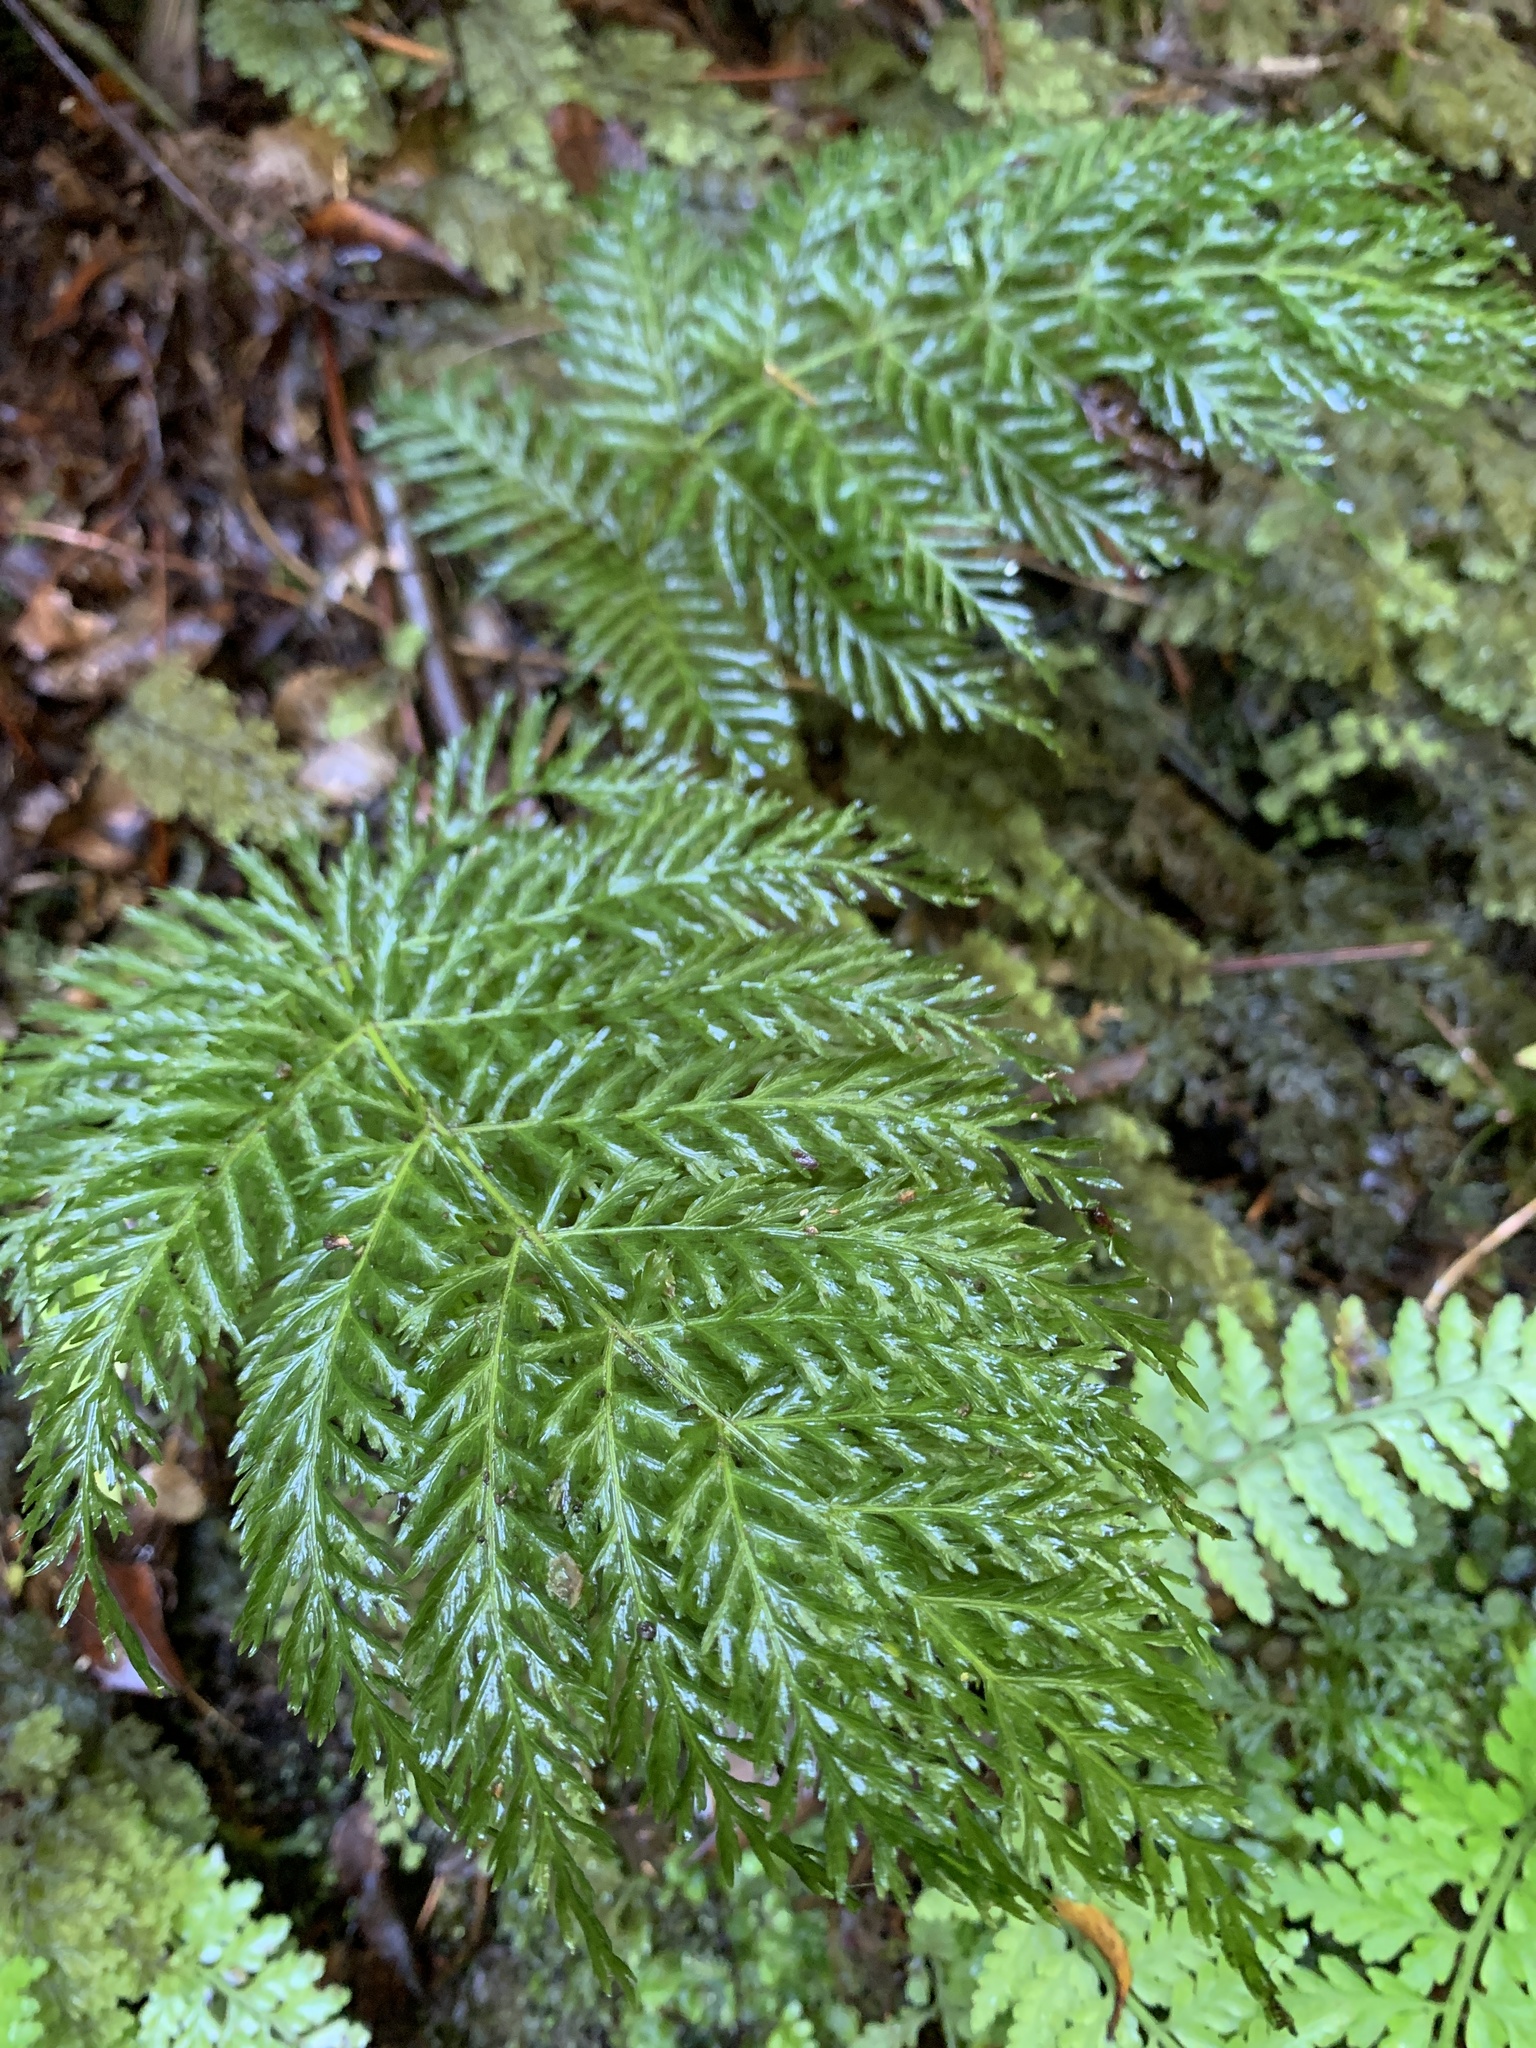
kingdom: Plantae
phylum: Tracheophyta
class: Polypodiopsida
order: Osmundales
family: Osmundaceae
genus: Leptopteris
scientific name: Leptopteris hymenophylloides
